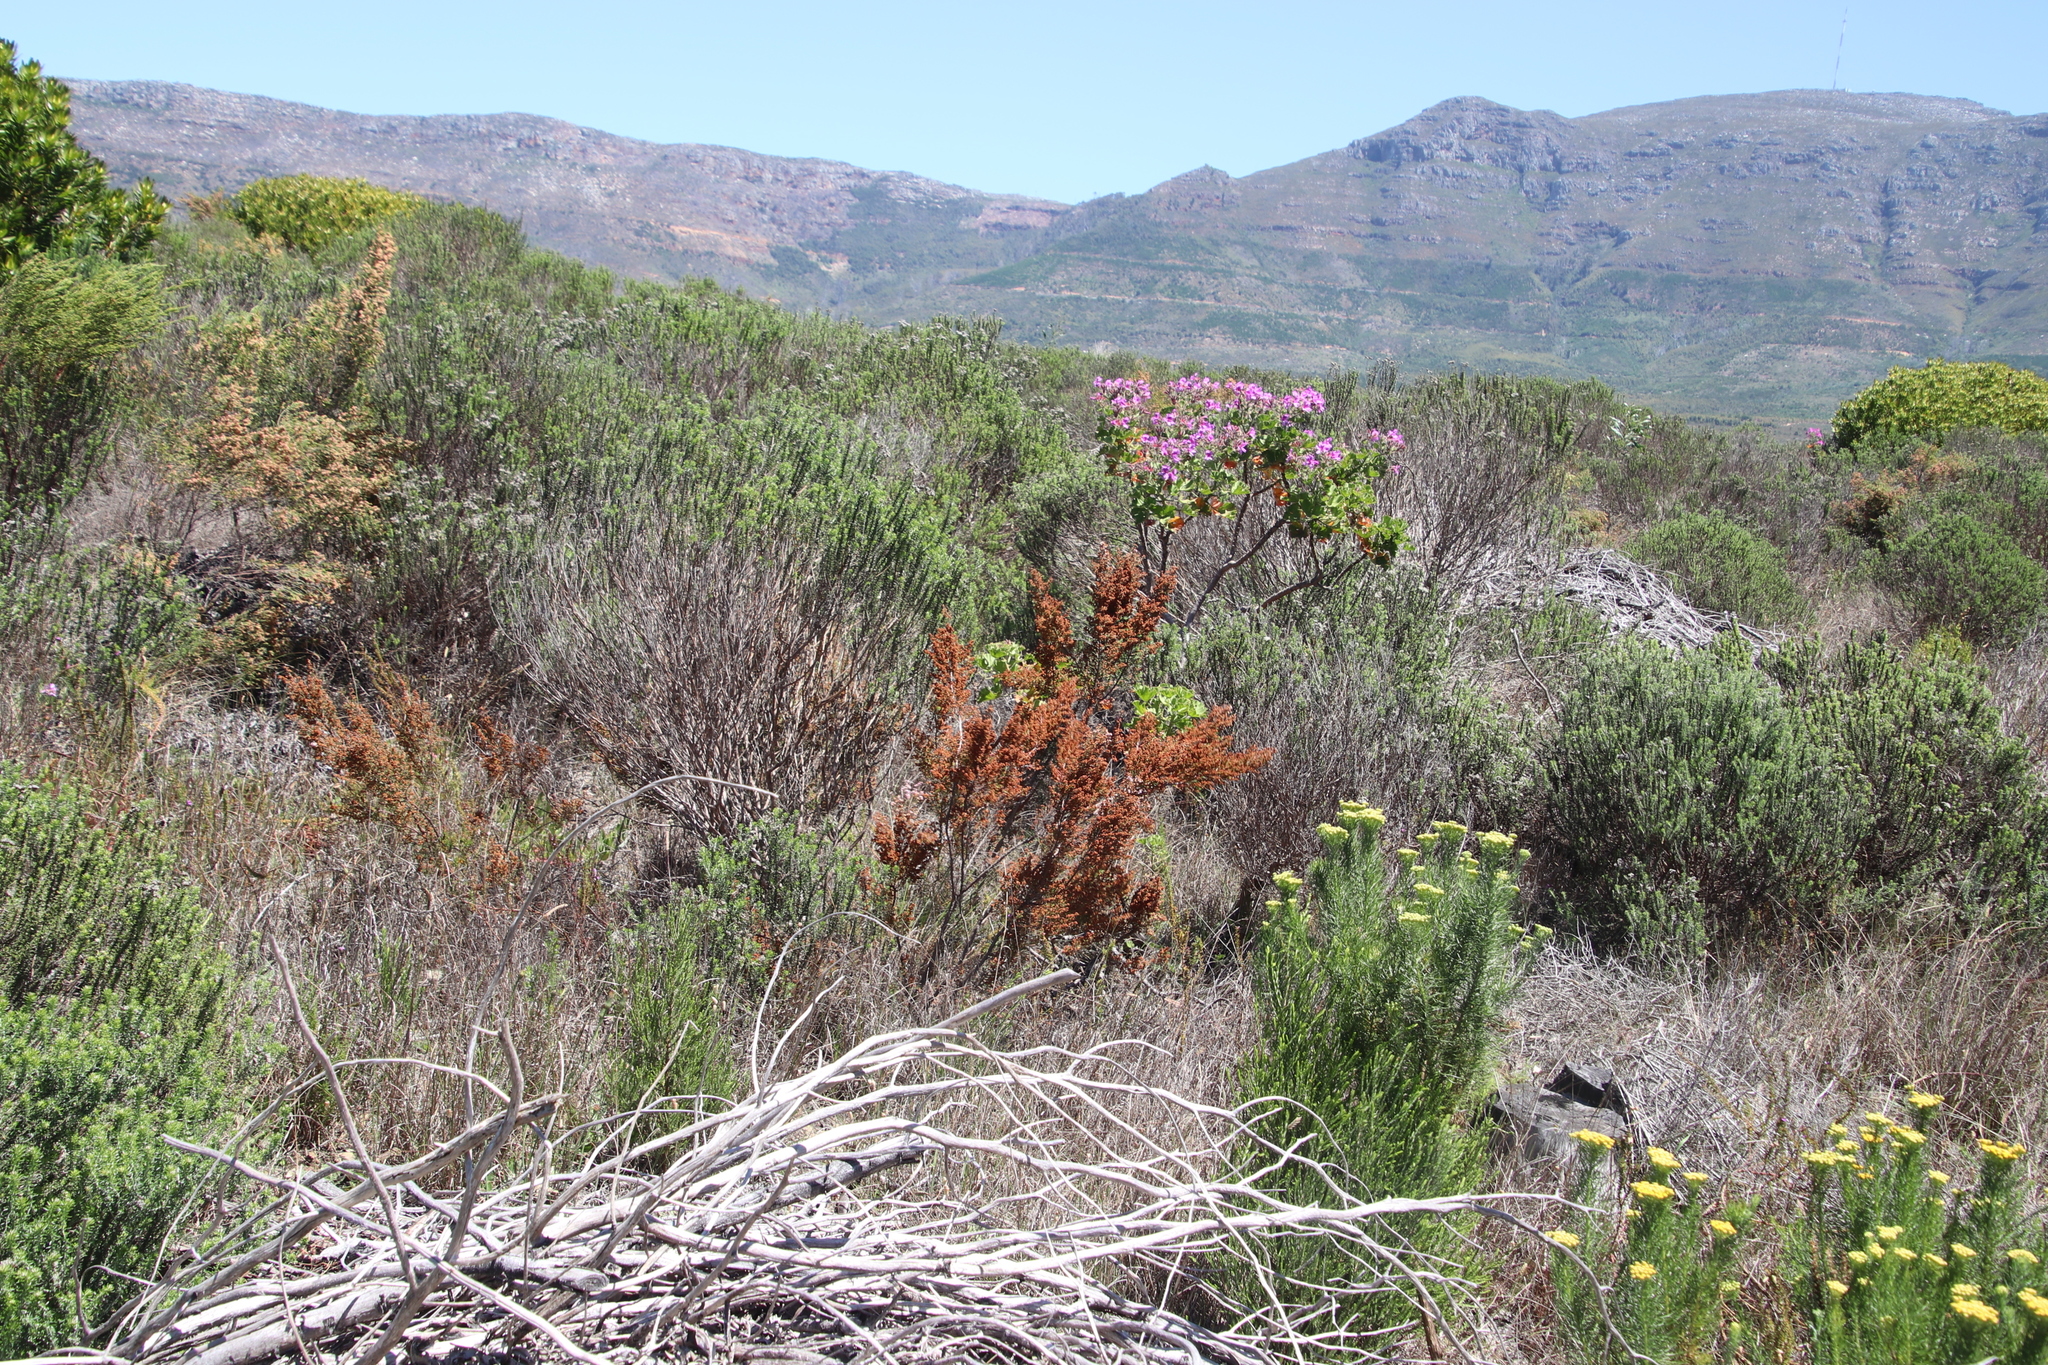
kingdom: Plantae
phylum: Tracheophyta
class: Magnoliopsida
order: Ericales
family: Ericaceae
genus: Erica
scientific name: Erica mauritanica
